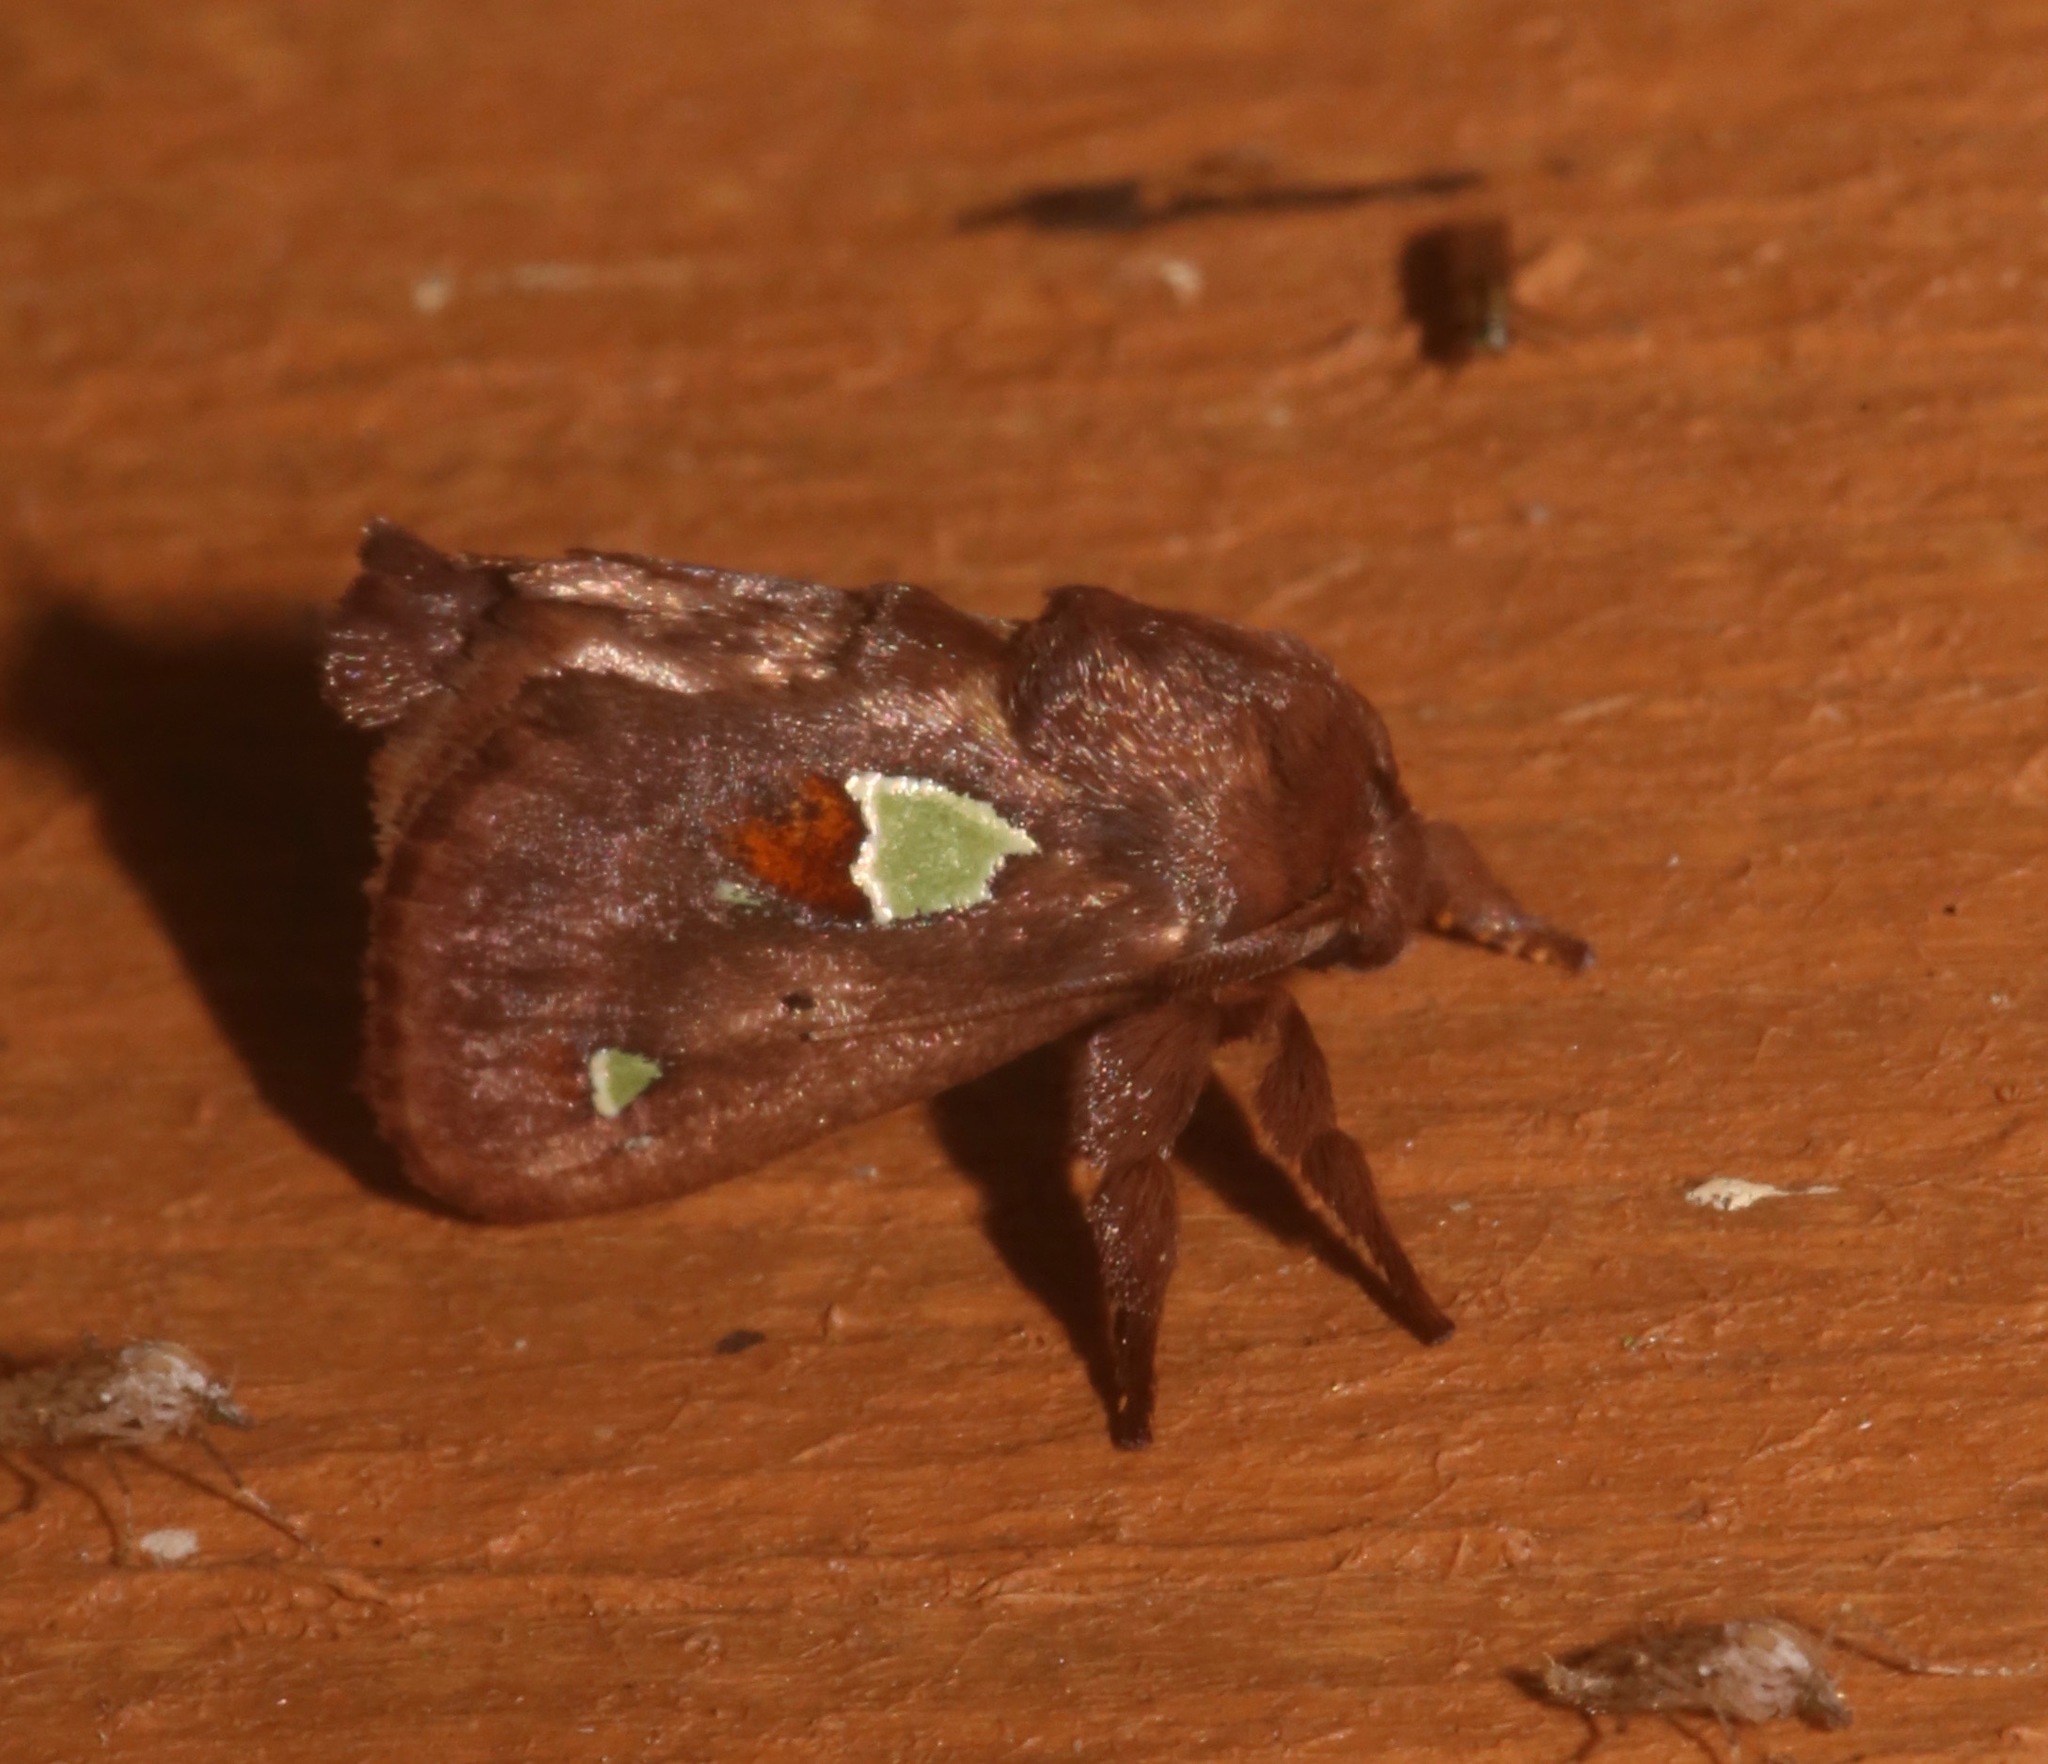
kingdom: Animalia
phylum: Arthropoda
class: Insecta
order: Lepidoptera
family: Limacodidae
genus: Euclea
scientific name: Euclea delphinii
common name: Spiny oak-slug moth
